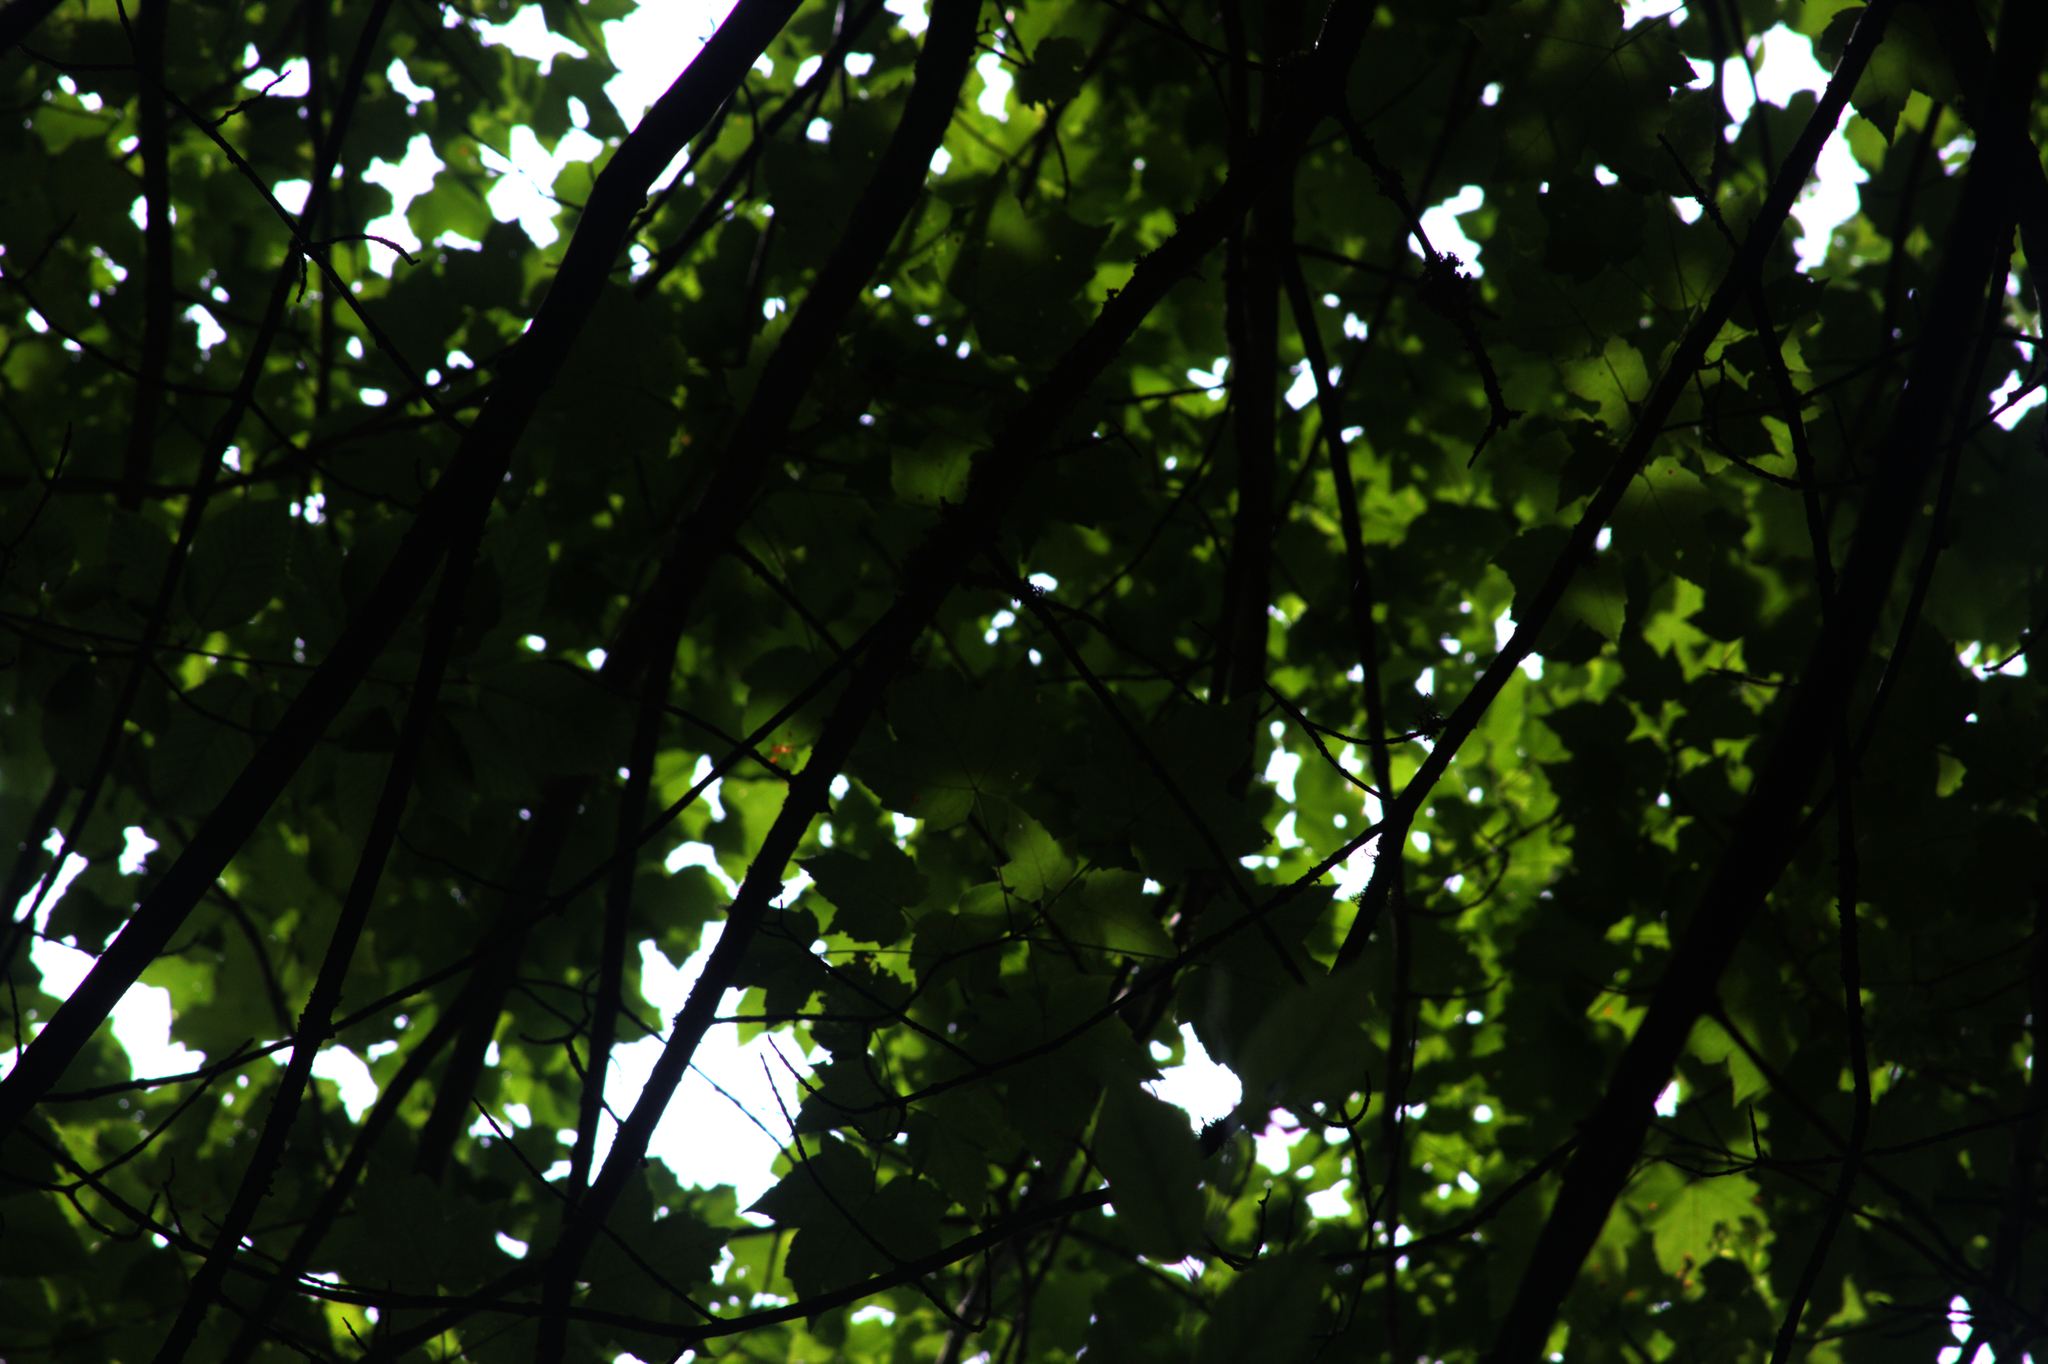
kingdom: Plantae
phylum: Tracheophyta
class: Magnoliopsida
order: Sapindales
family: Sapindaceae
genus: Acer
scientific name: Acer rubrum
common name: Red maple
